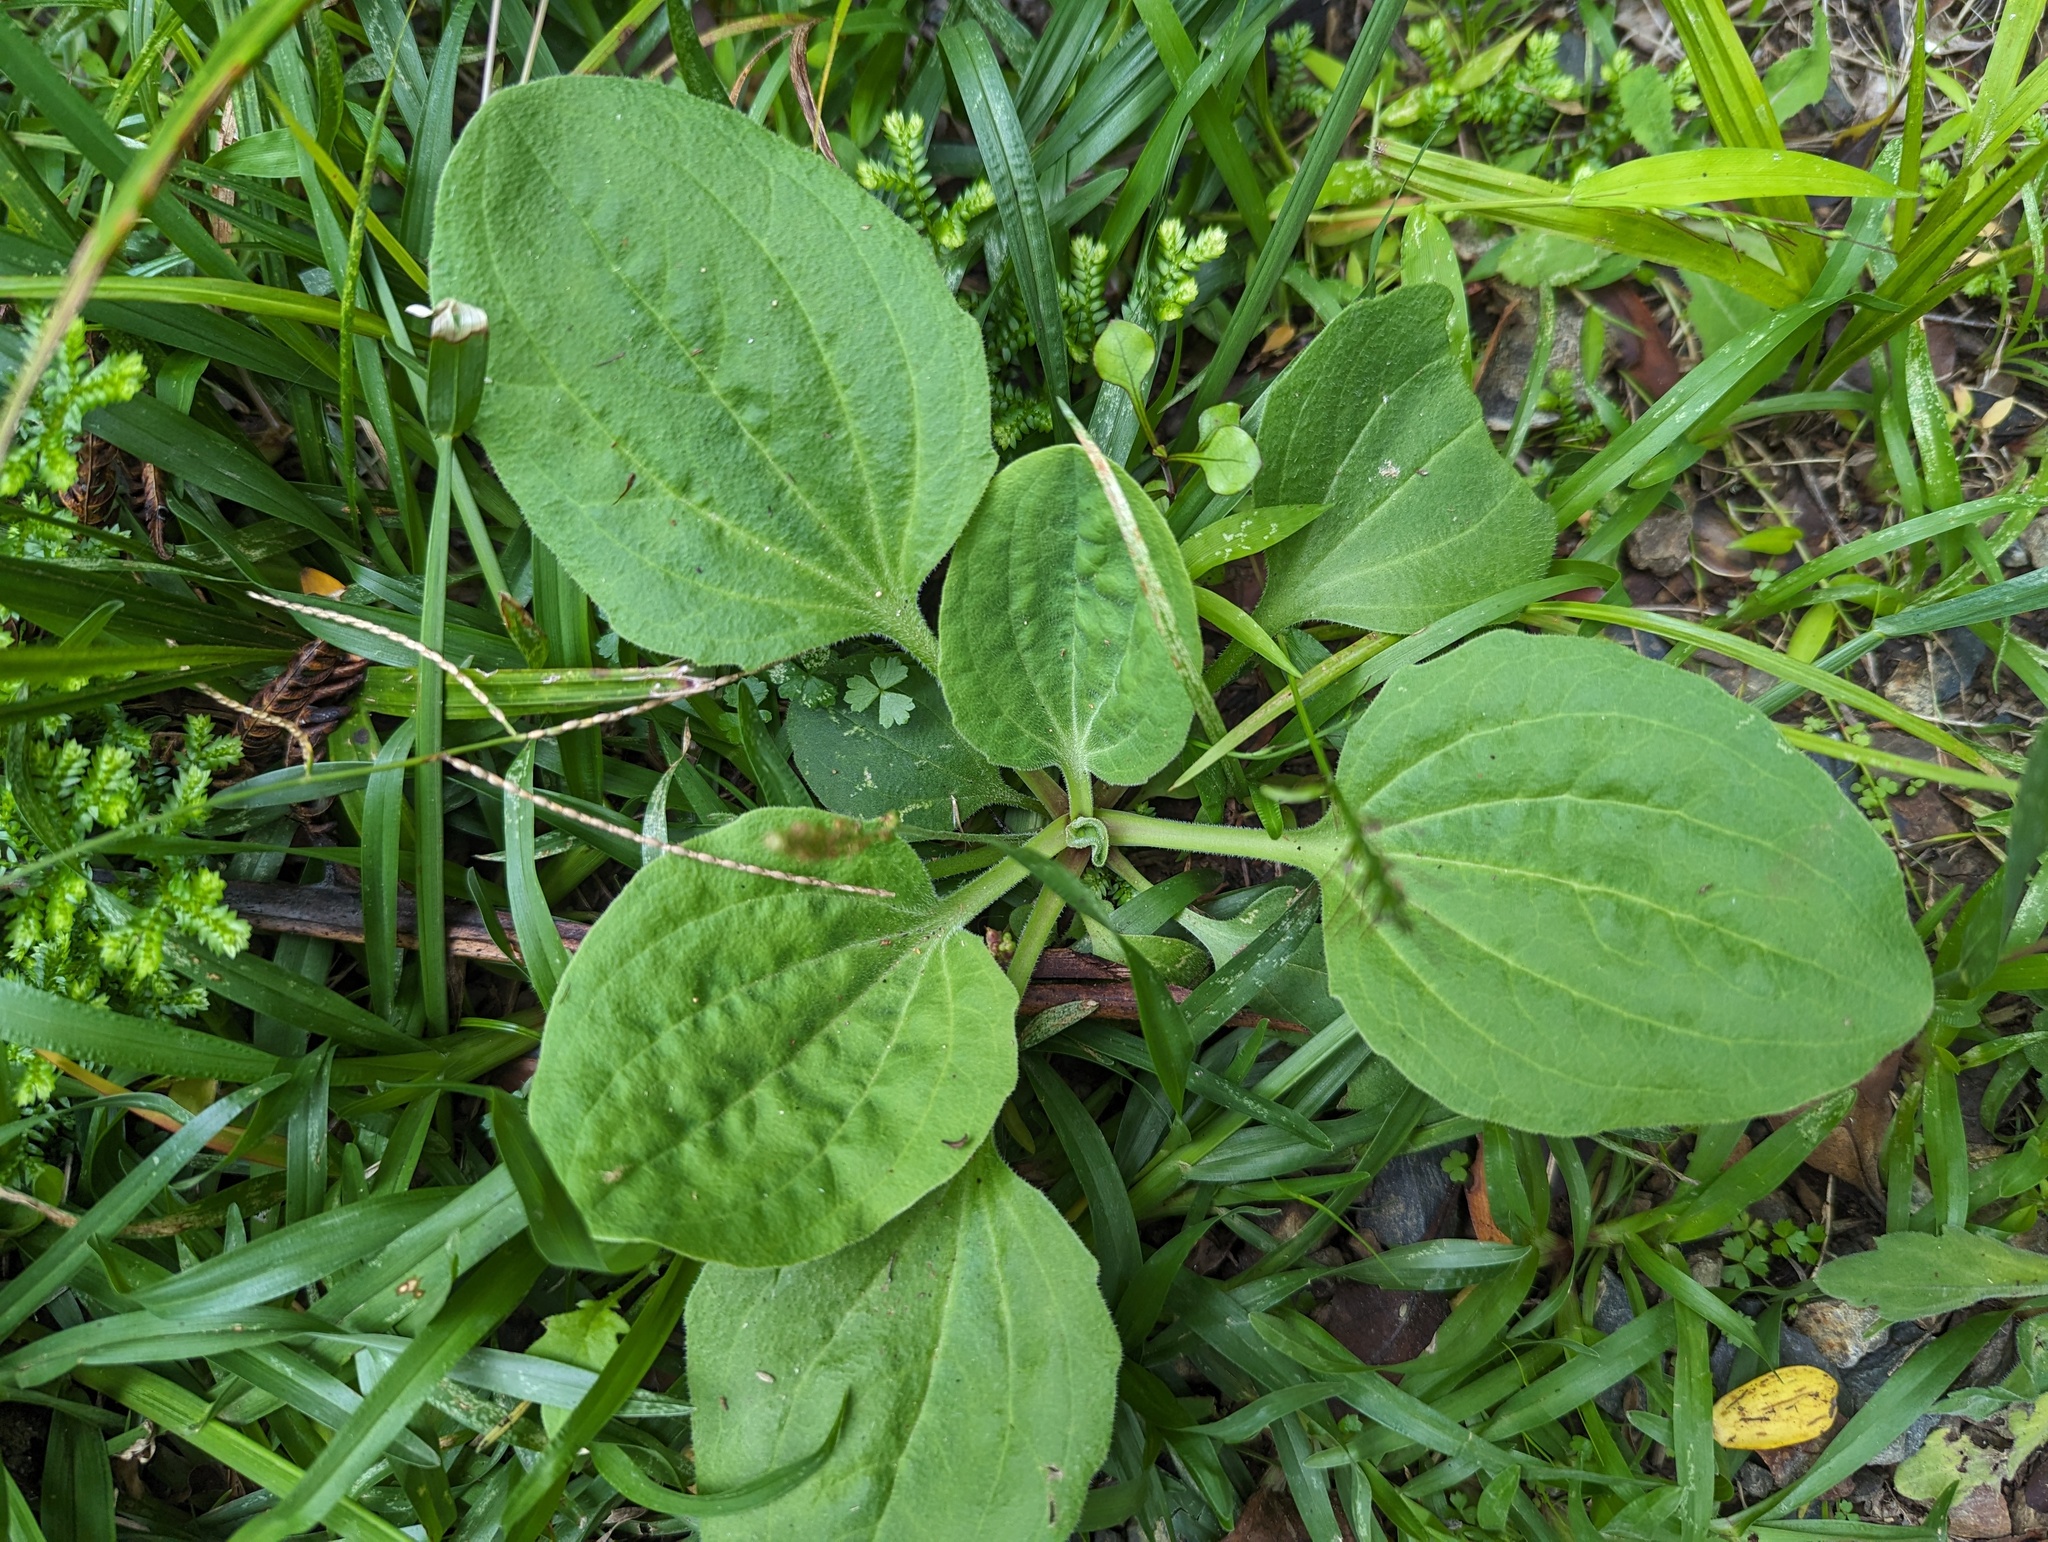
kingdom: Plantae
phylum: Tracheophyta
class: Magnoliopsida
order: Lamiales
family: Plantaginaceae
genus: Plantago
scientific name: Plantago major
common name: Common plantain
